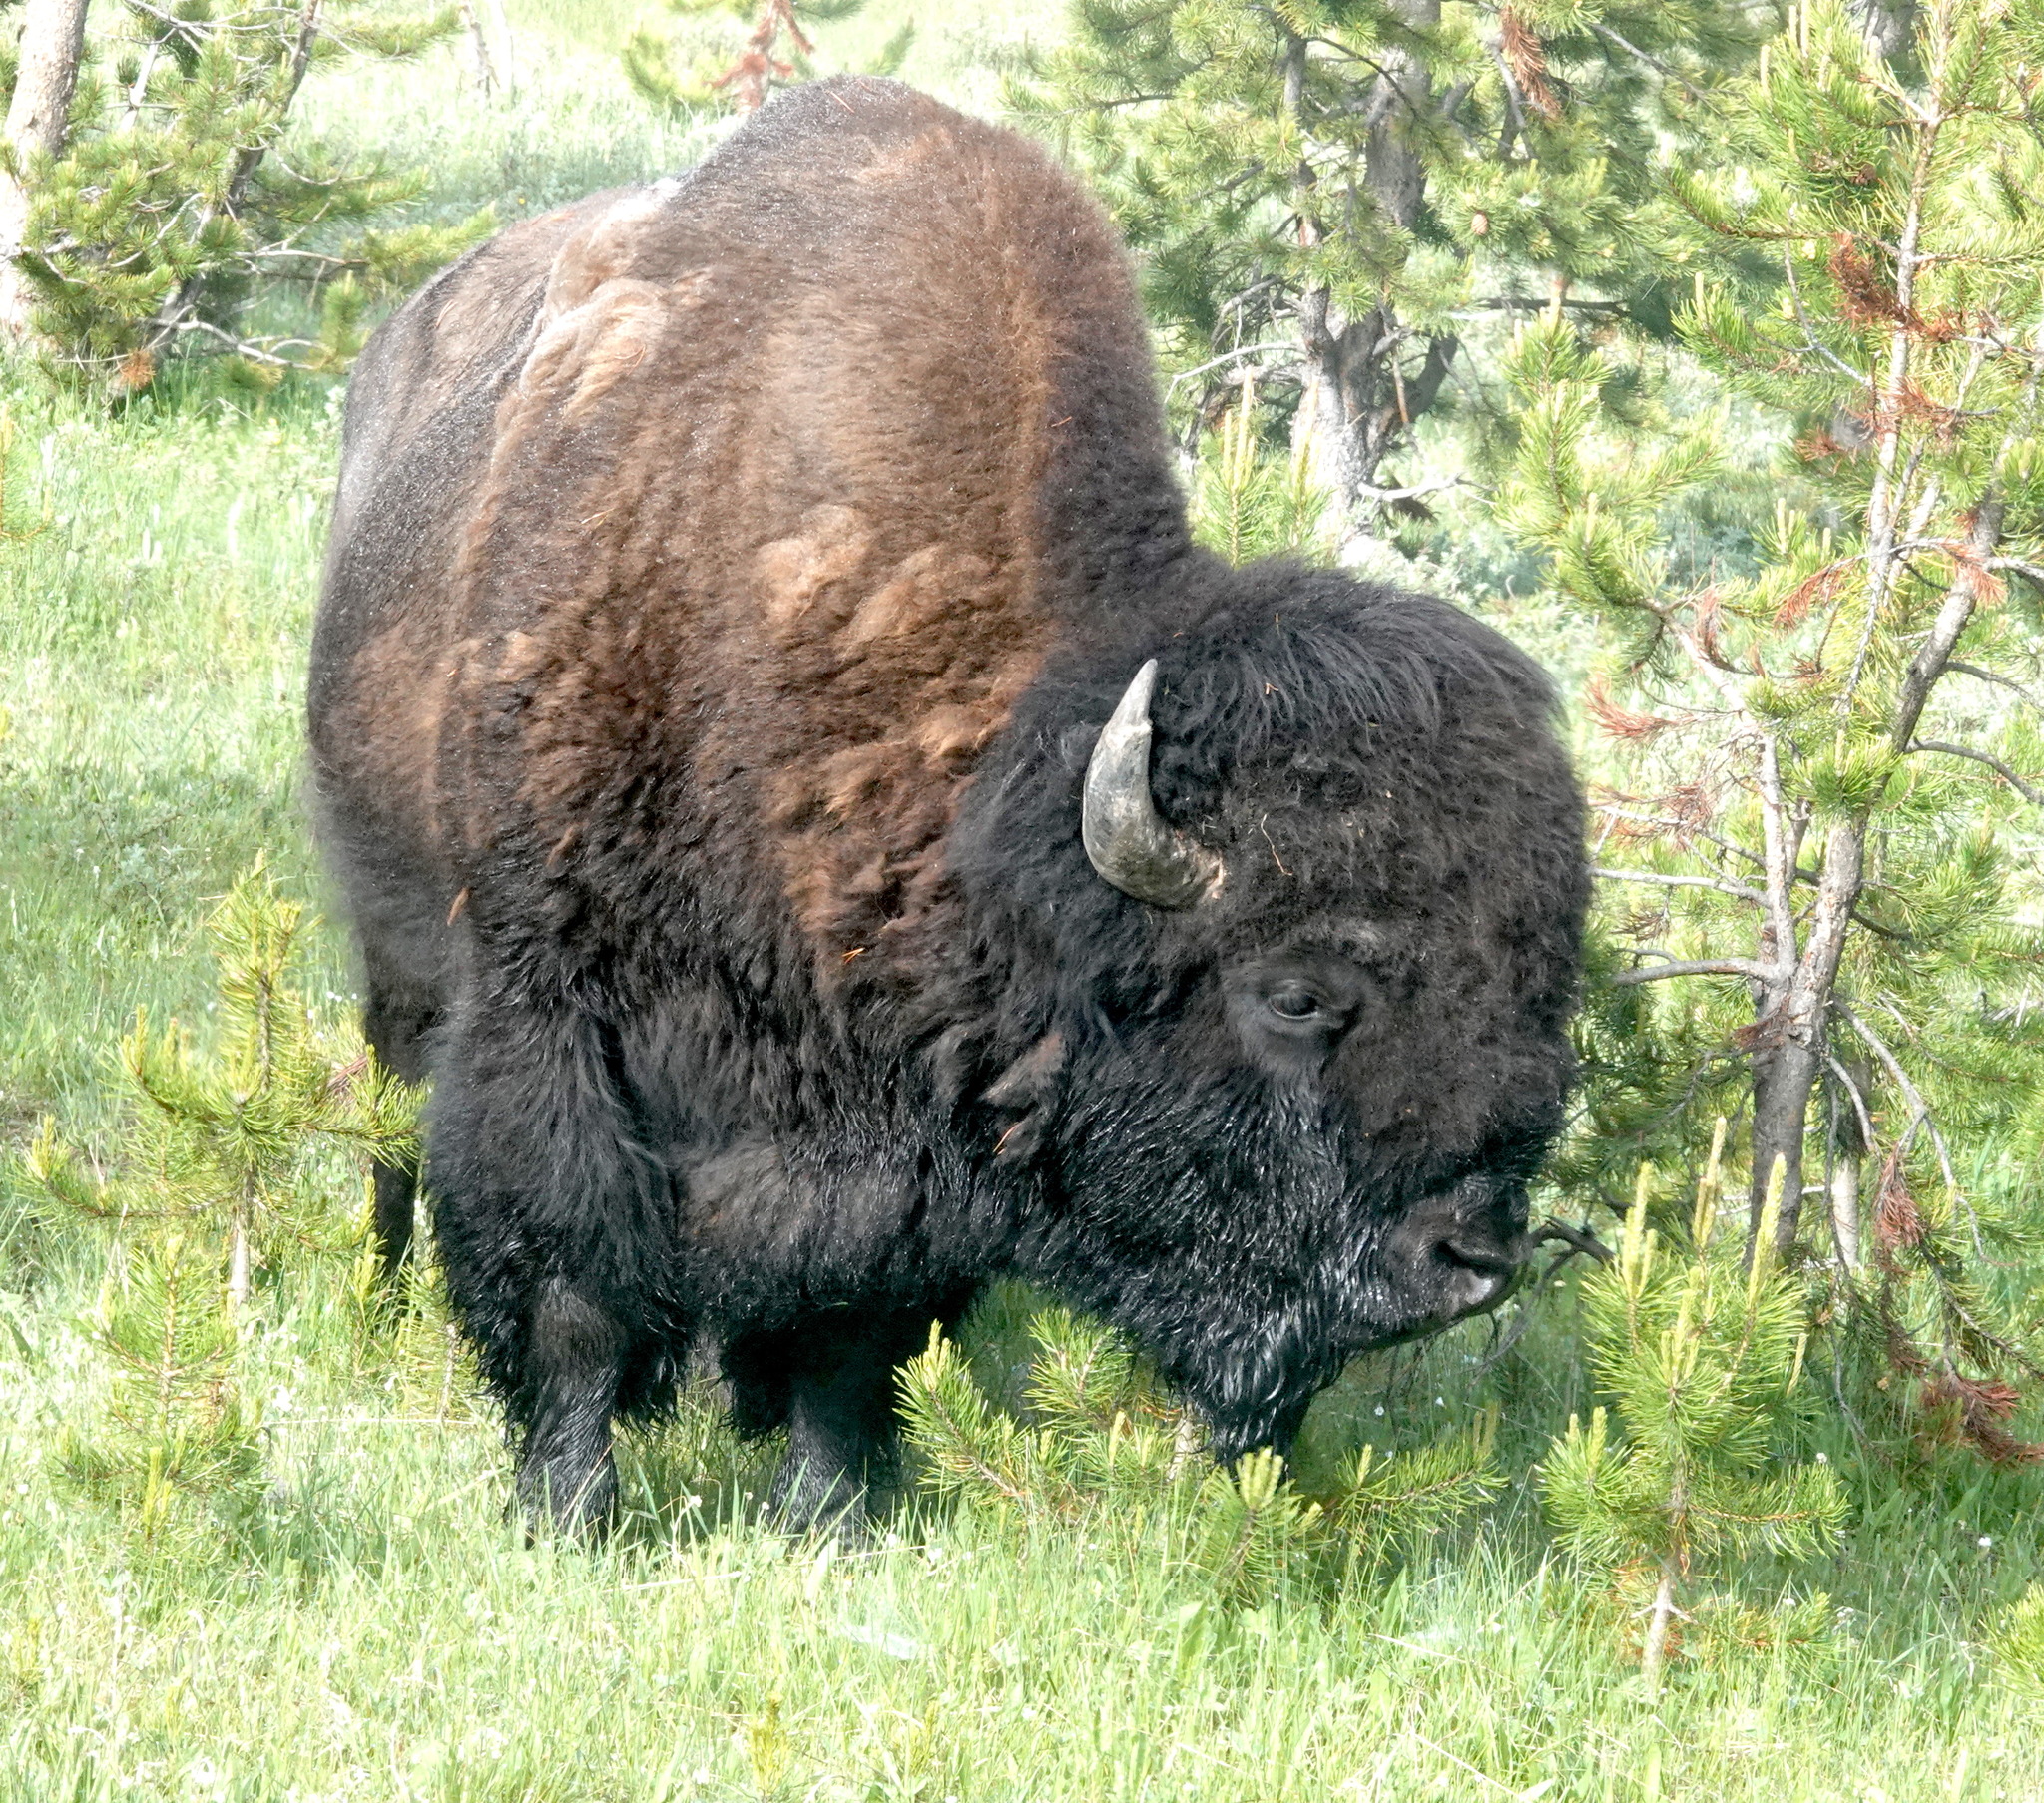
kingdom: Animalia
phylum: Chordata
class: Mammalia
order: Artiodactyla
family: Bovidae
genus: Bison
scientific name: Bison bison
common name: American bison
